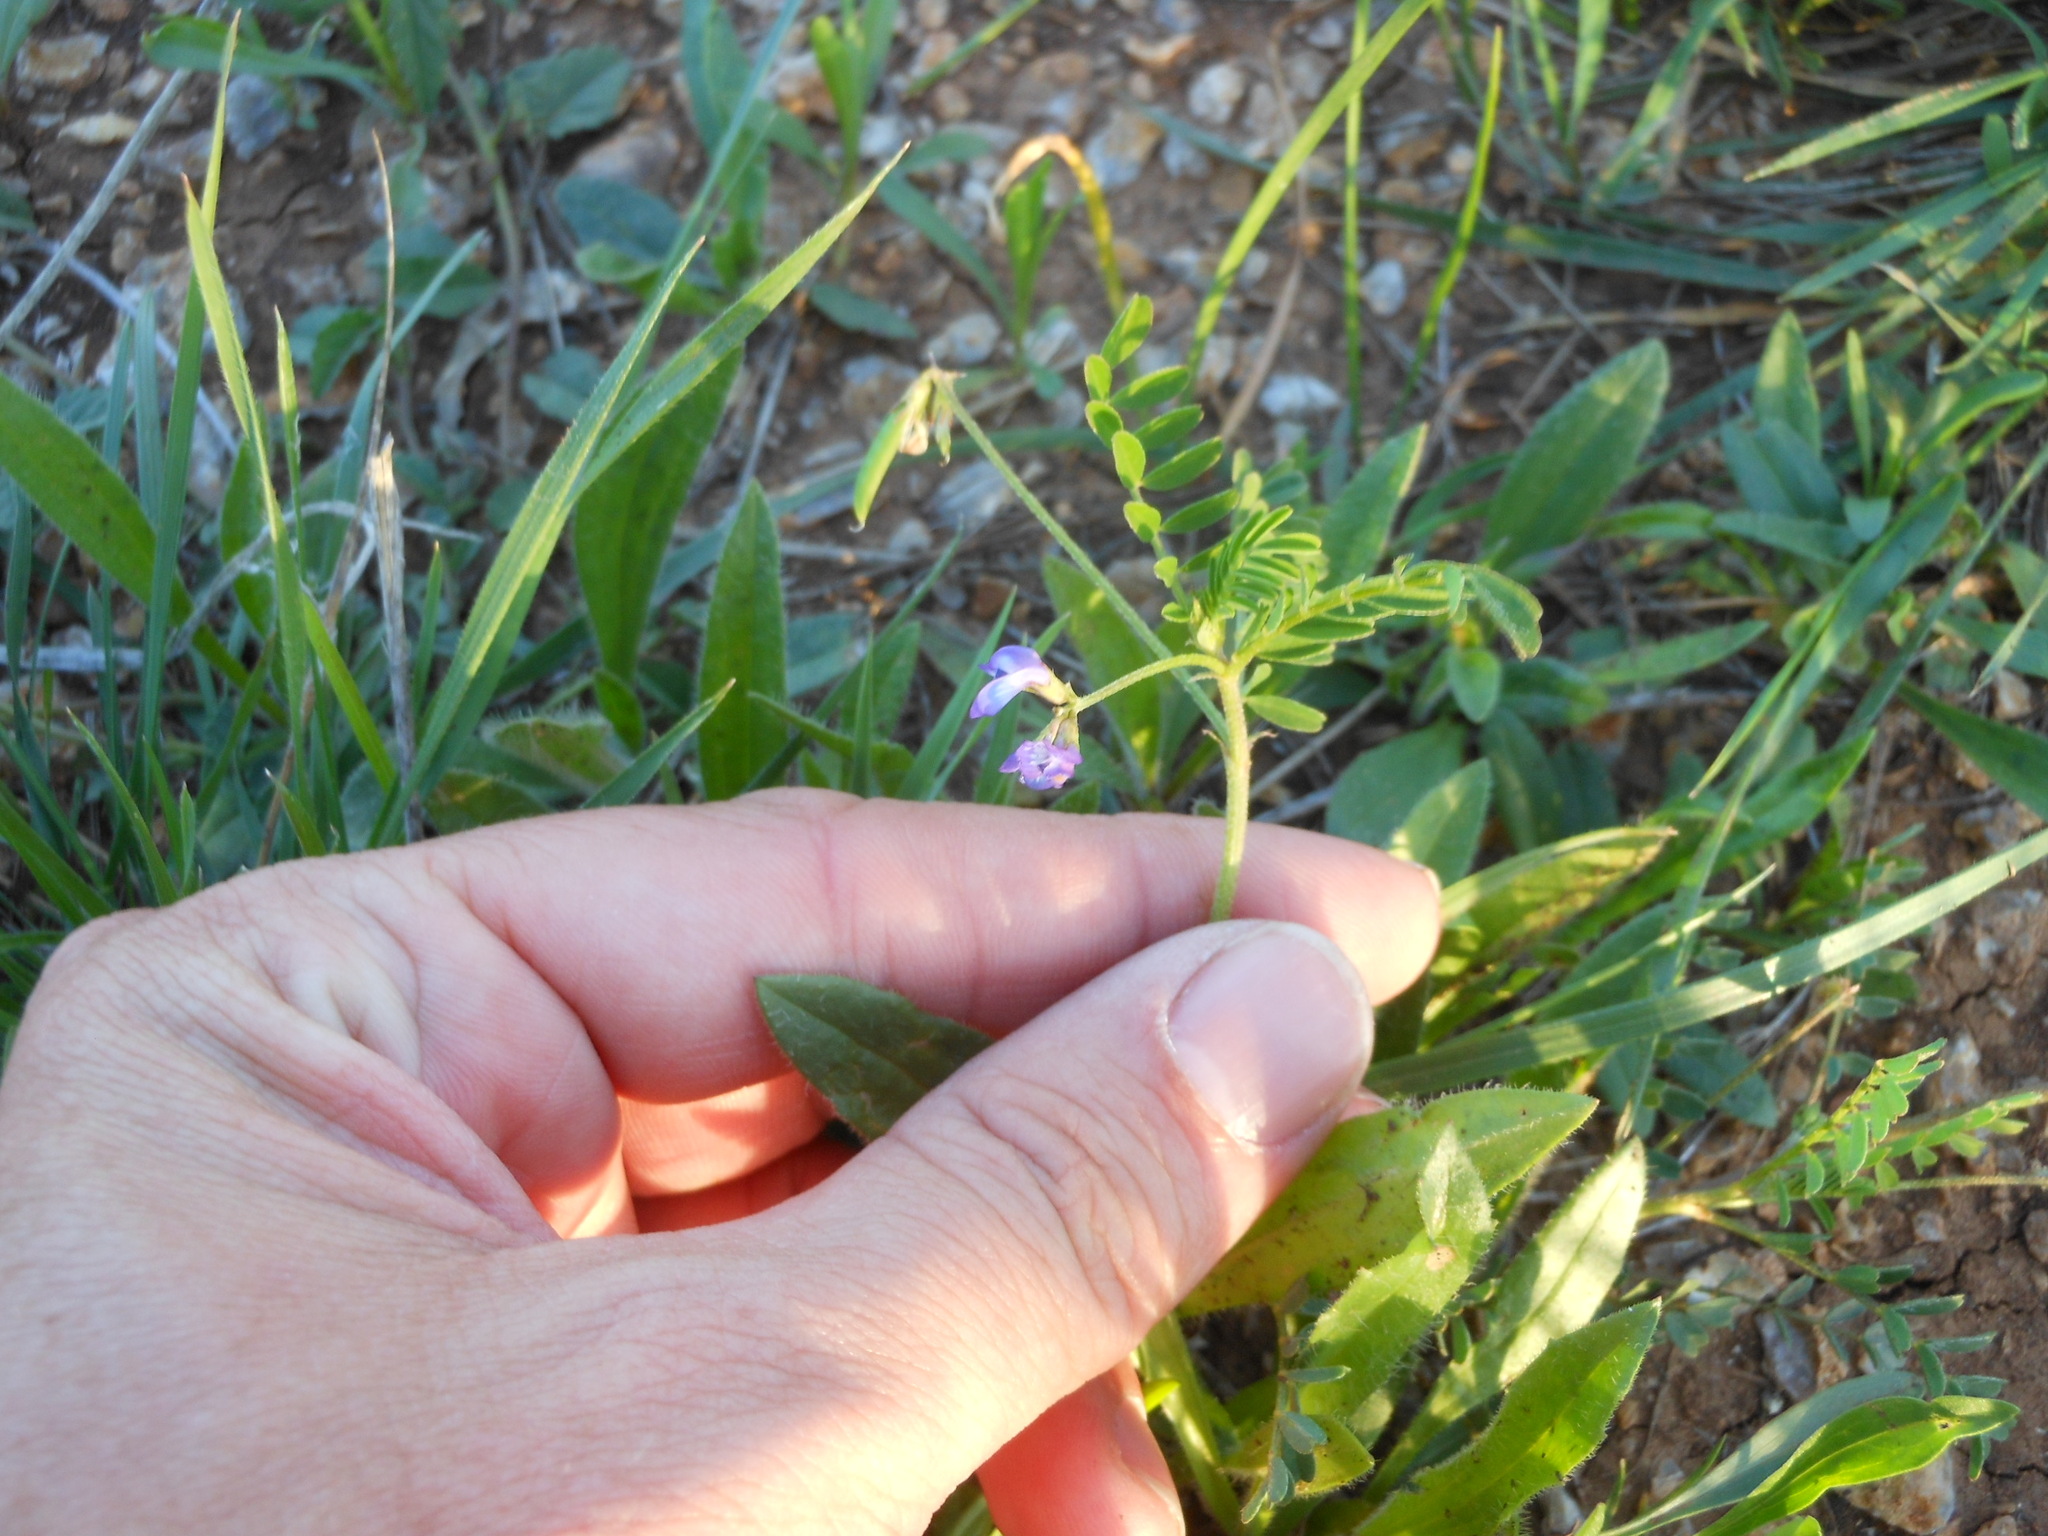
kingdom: Plantae
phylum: Tracheophyta
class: Magnoliopsida
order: Fabales
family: Fabaceae
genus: Astragalus
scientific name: Astragalus leptocarpus
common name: Bodkin milk-vetch
